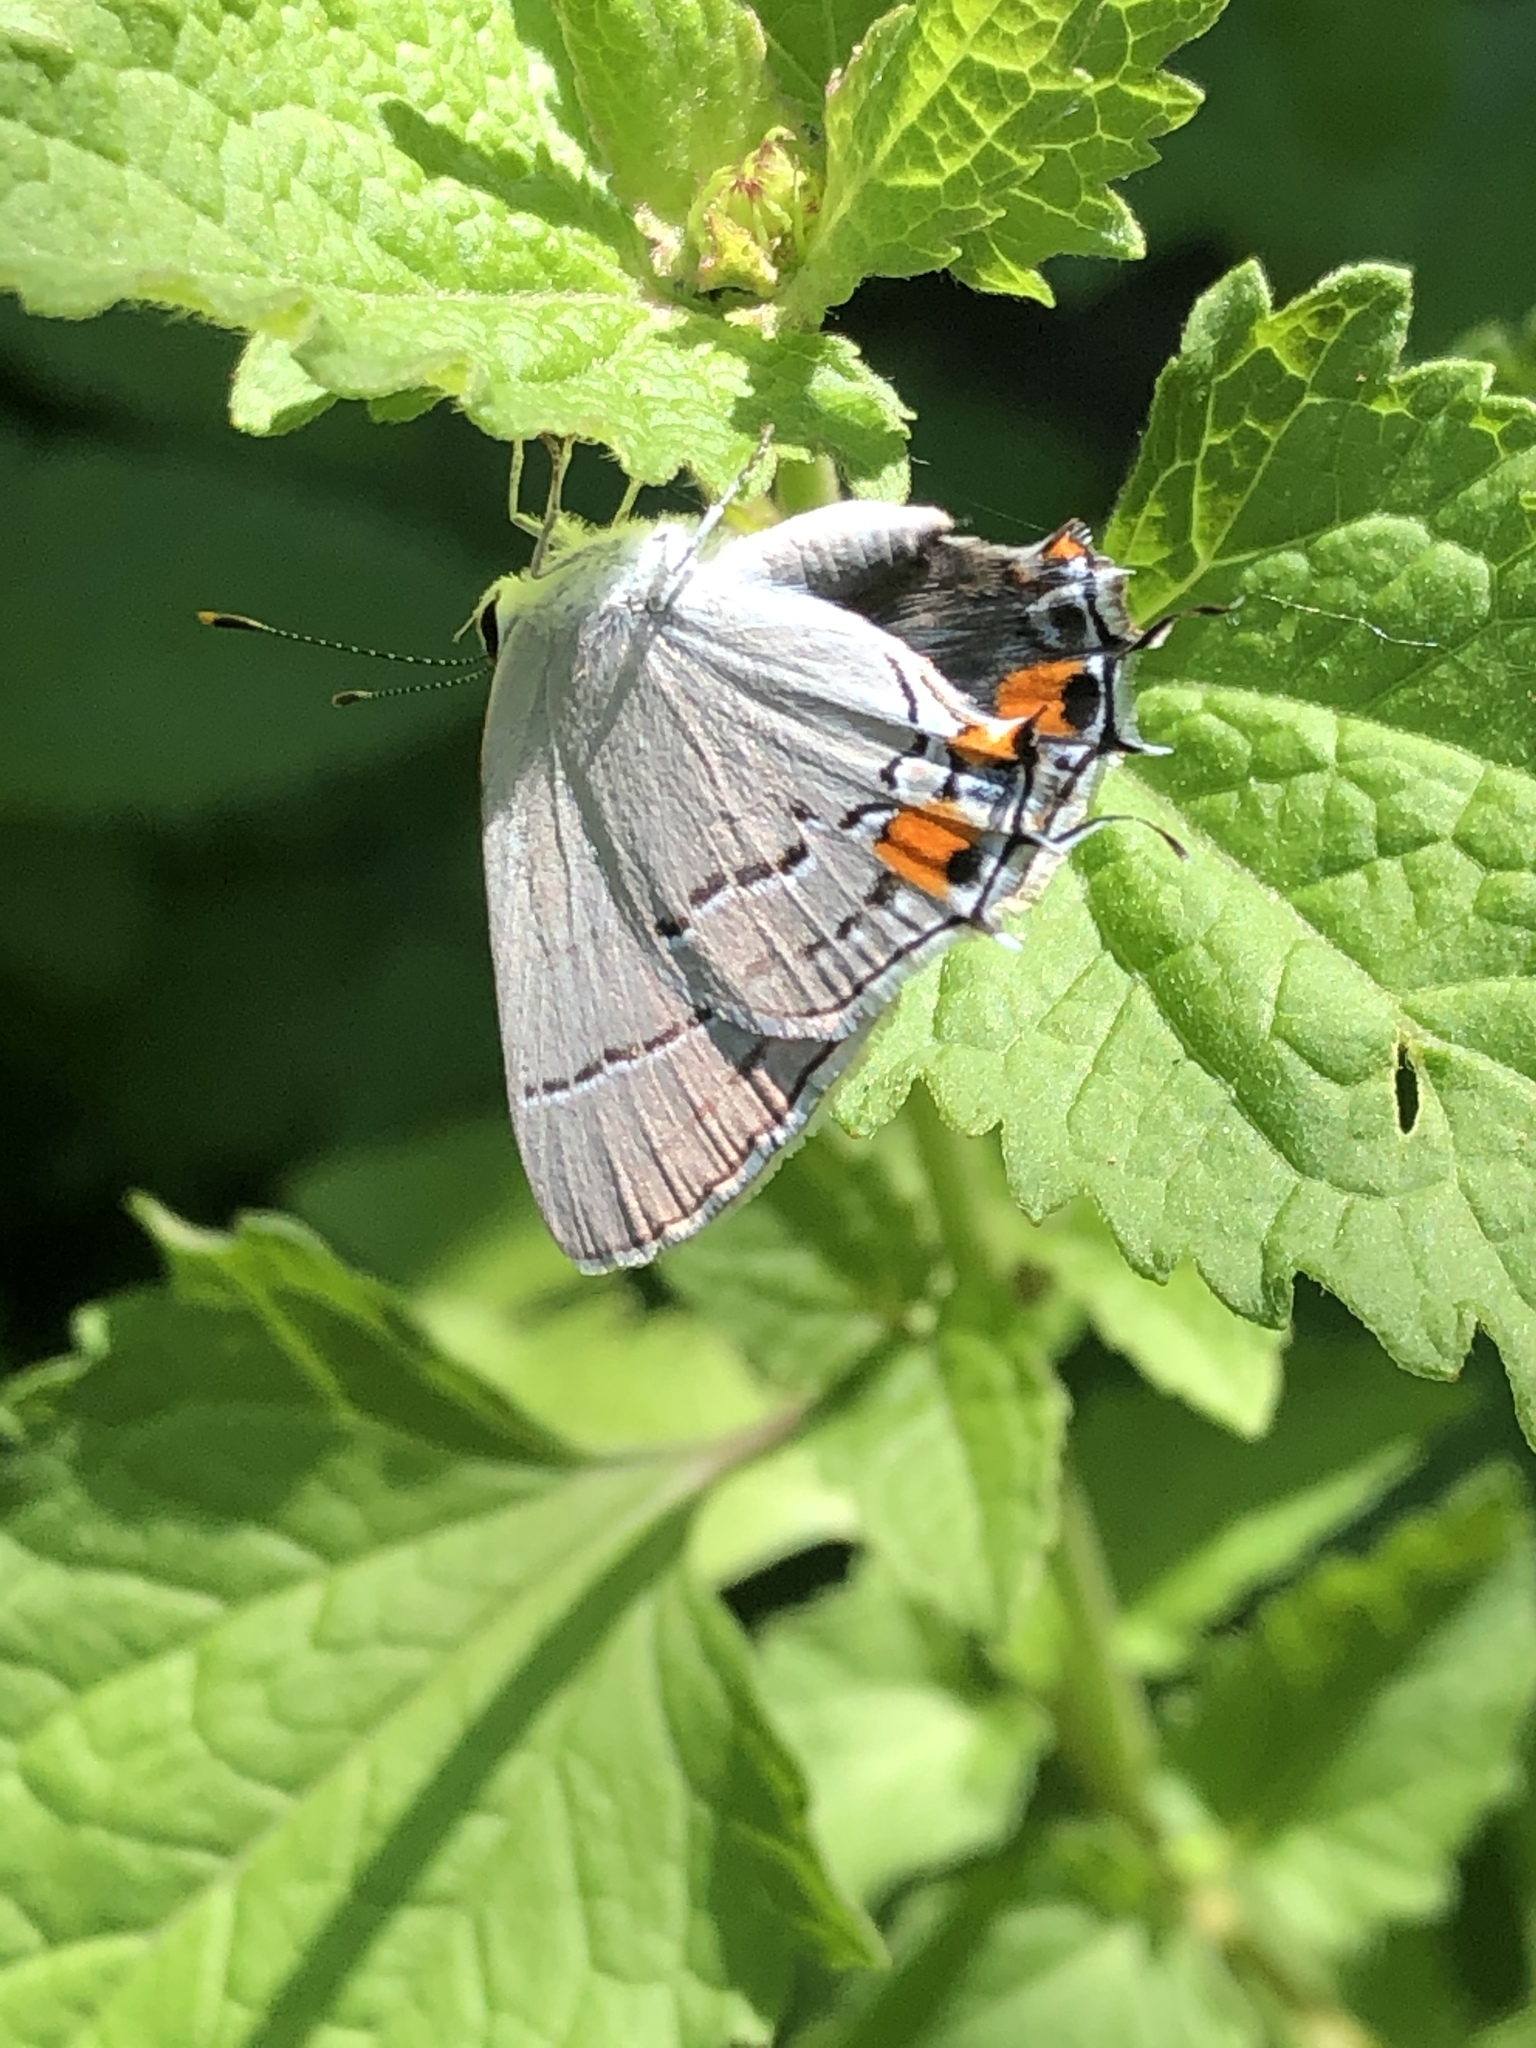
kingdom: Animalia
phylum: Arthropoda
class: Insecta
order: Lepidoptera
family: Lycaenidae
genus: Strymon
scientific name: Strymon melinus
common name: Gray hairstreak
